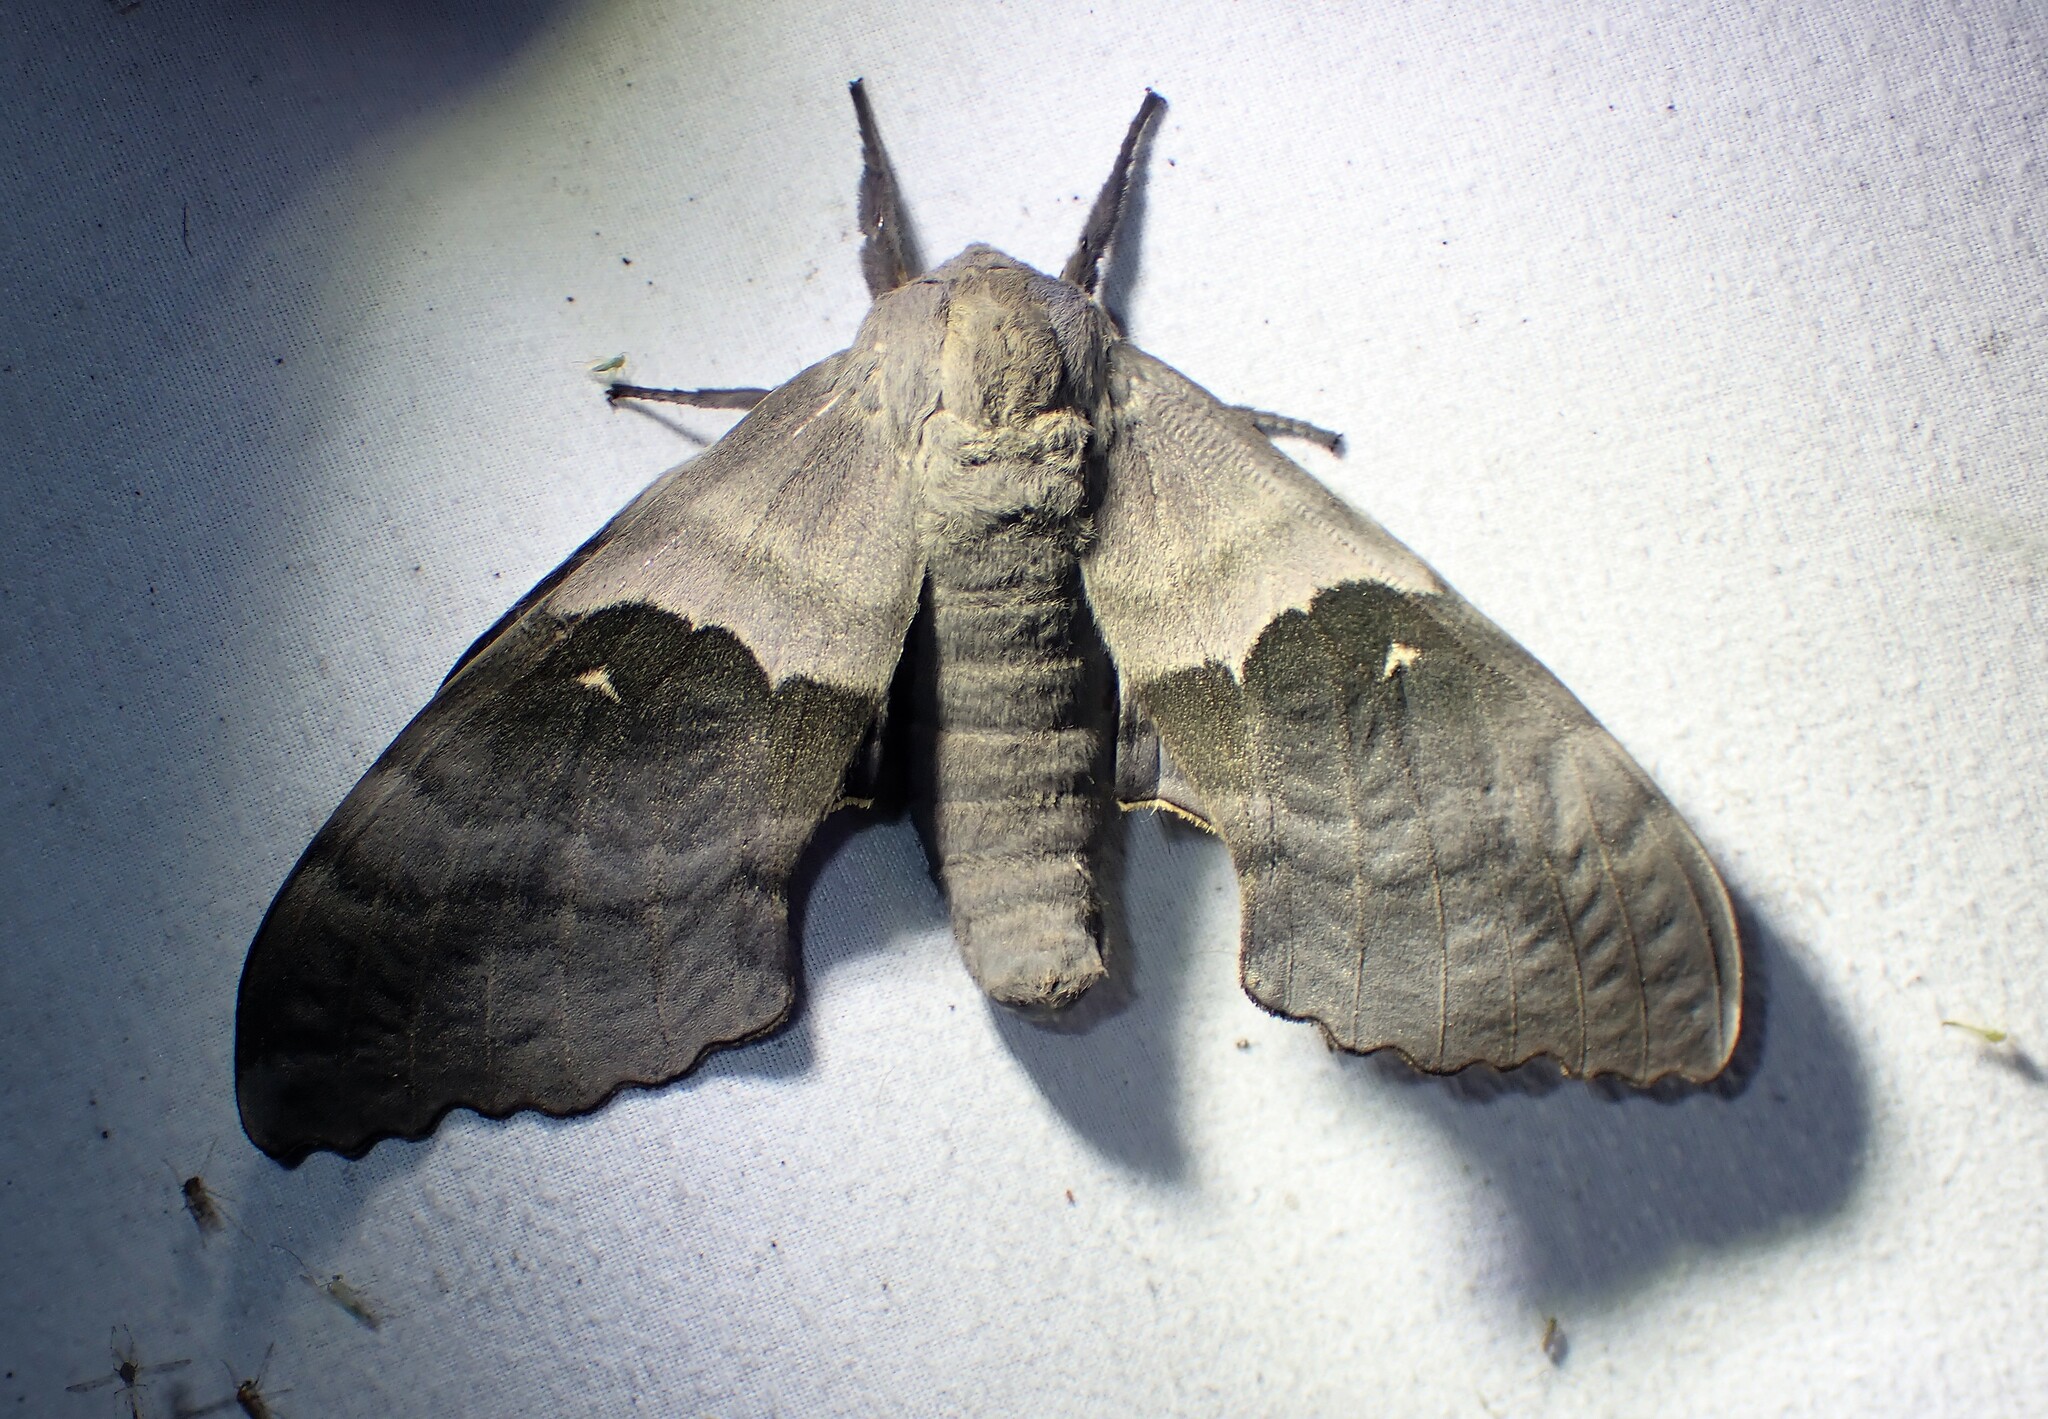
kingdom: Animalia
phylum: Arthropoda
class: Insecta
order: Lepidoptera
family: Sphingidae
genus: Pachysphinx
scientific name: Pachysphinx modesta
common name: Big poplar sphinx
